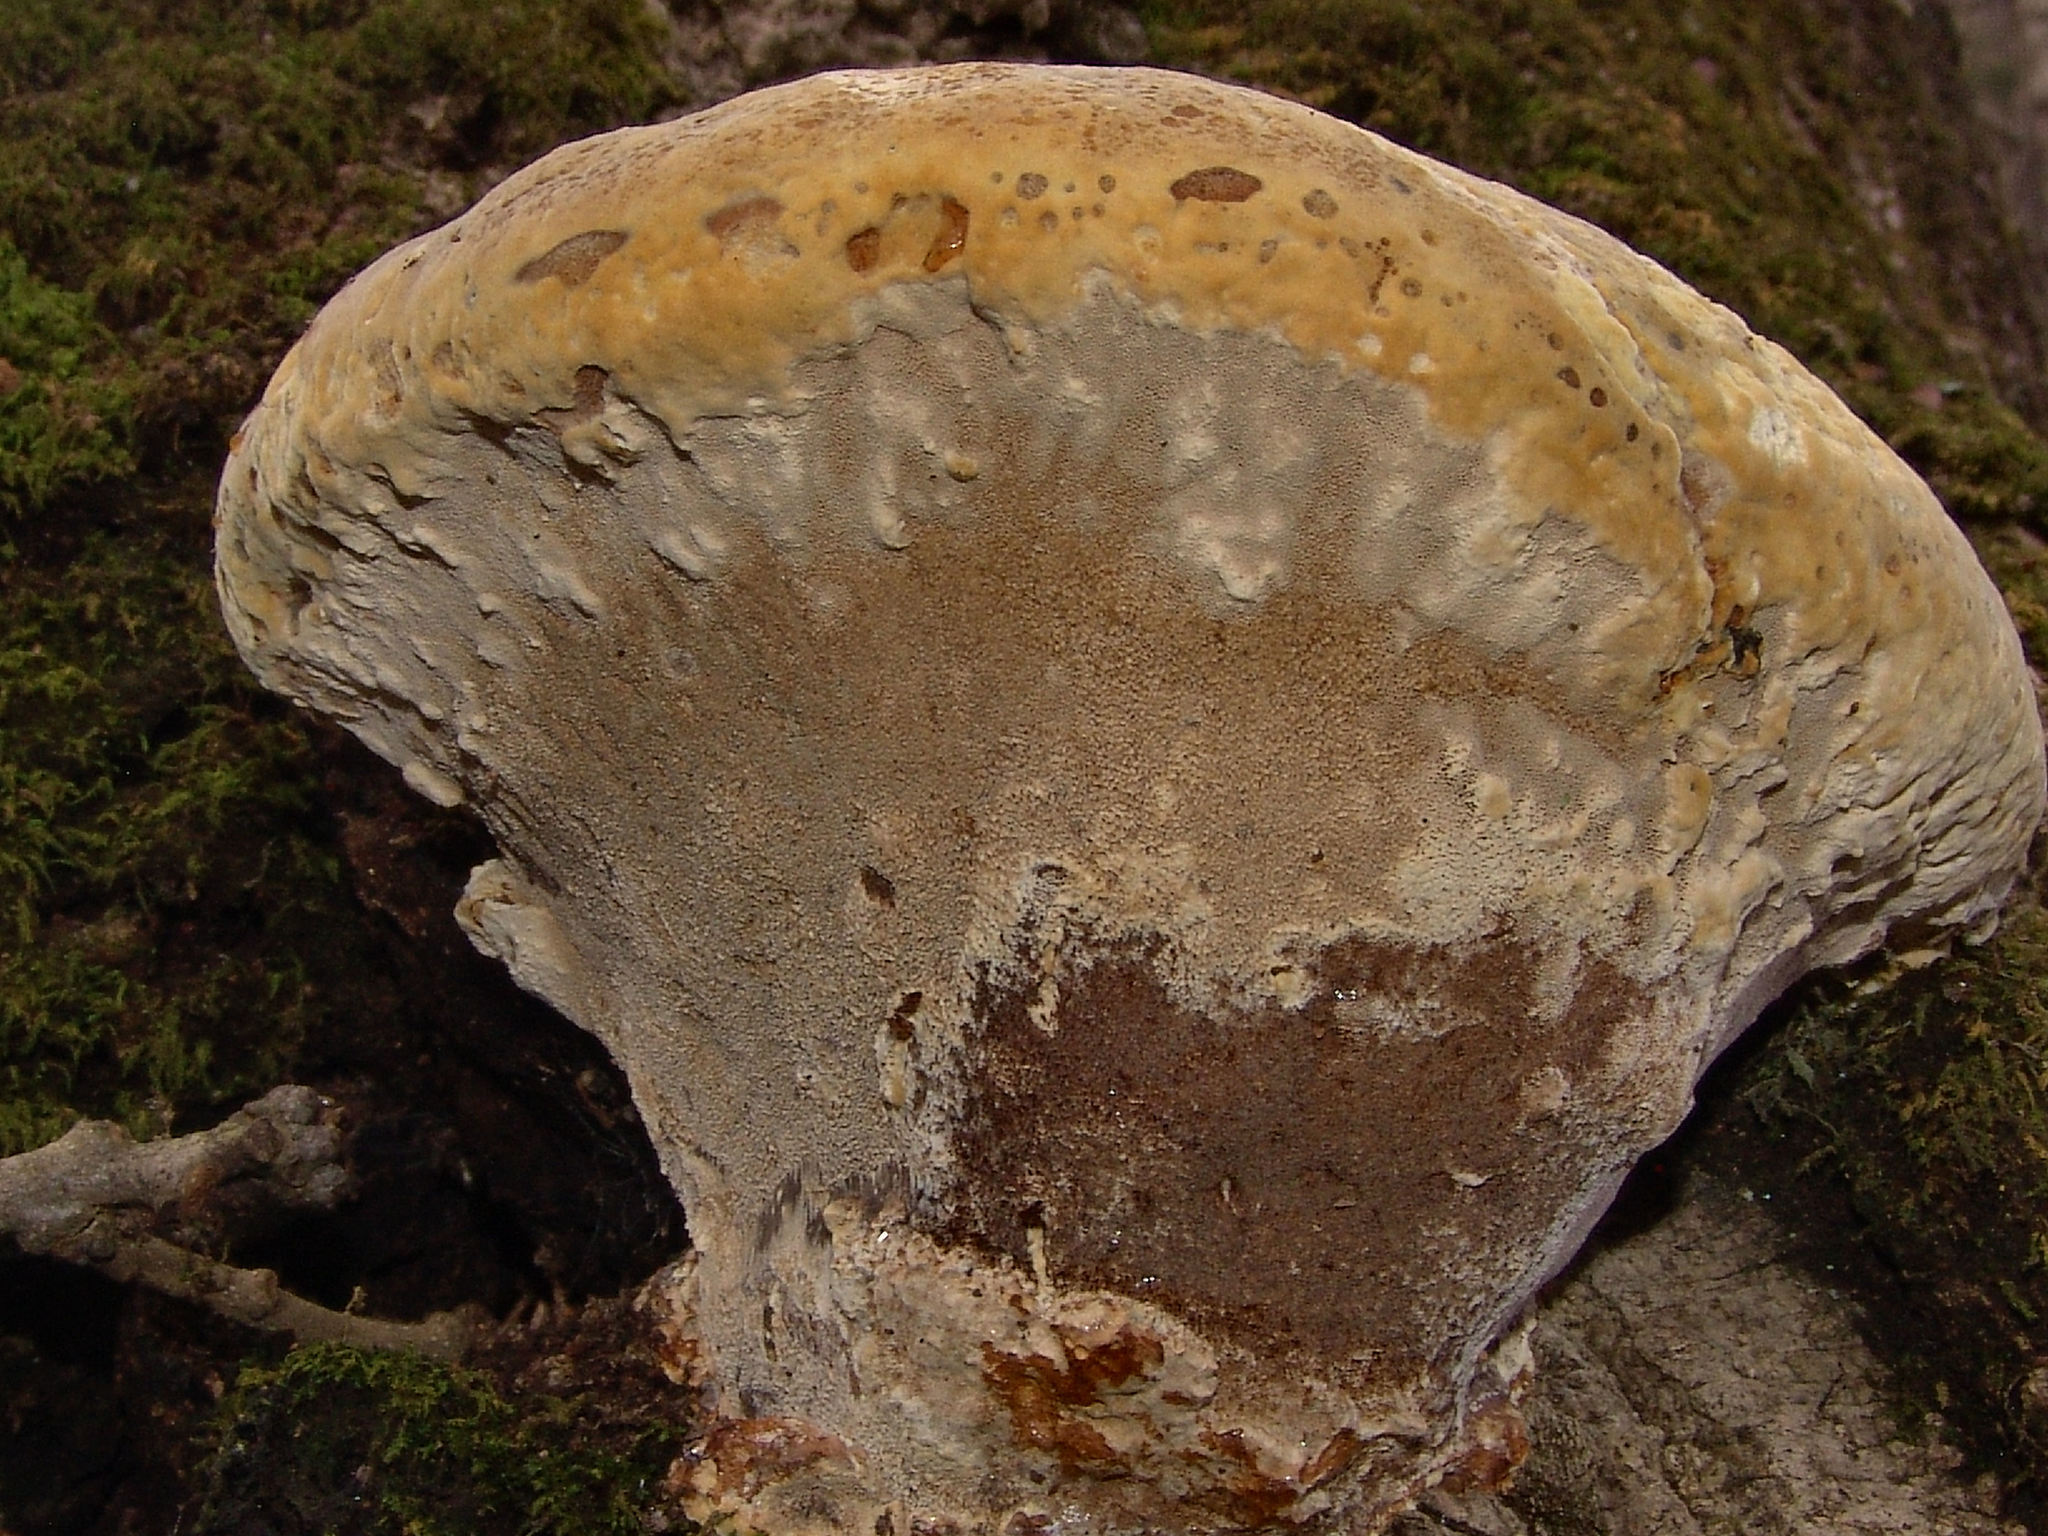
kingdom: Fungi
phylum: Basidiomycota
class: Agaricomycetes
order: Hymenochaetales
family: Hymenochaetaceae
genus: Pseudoinonotus
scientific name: Pseudoinonotus dryadeus
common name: Oak bracket
